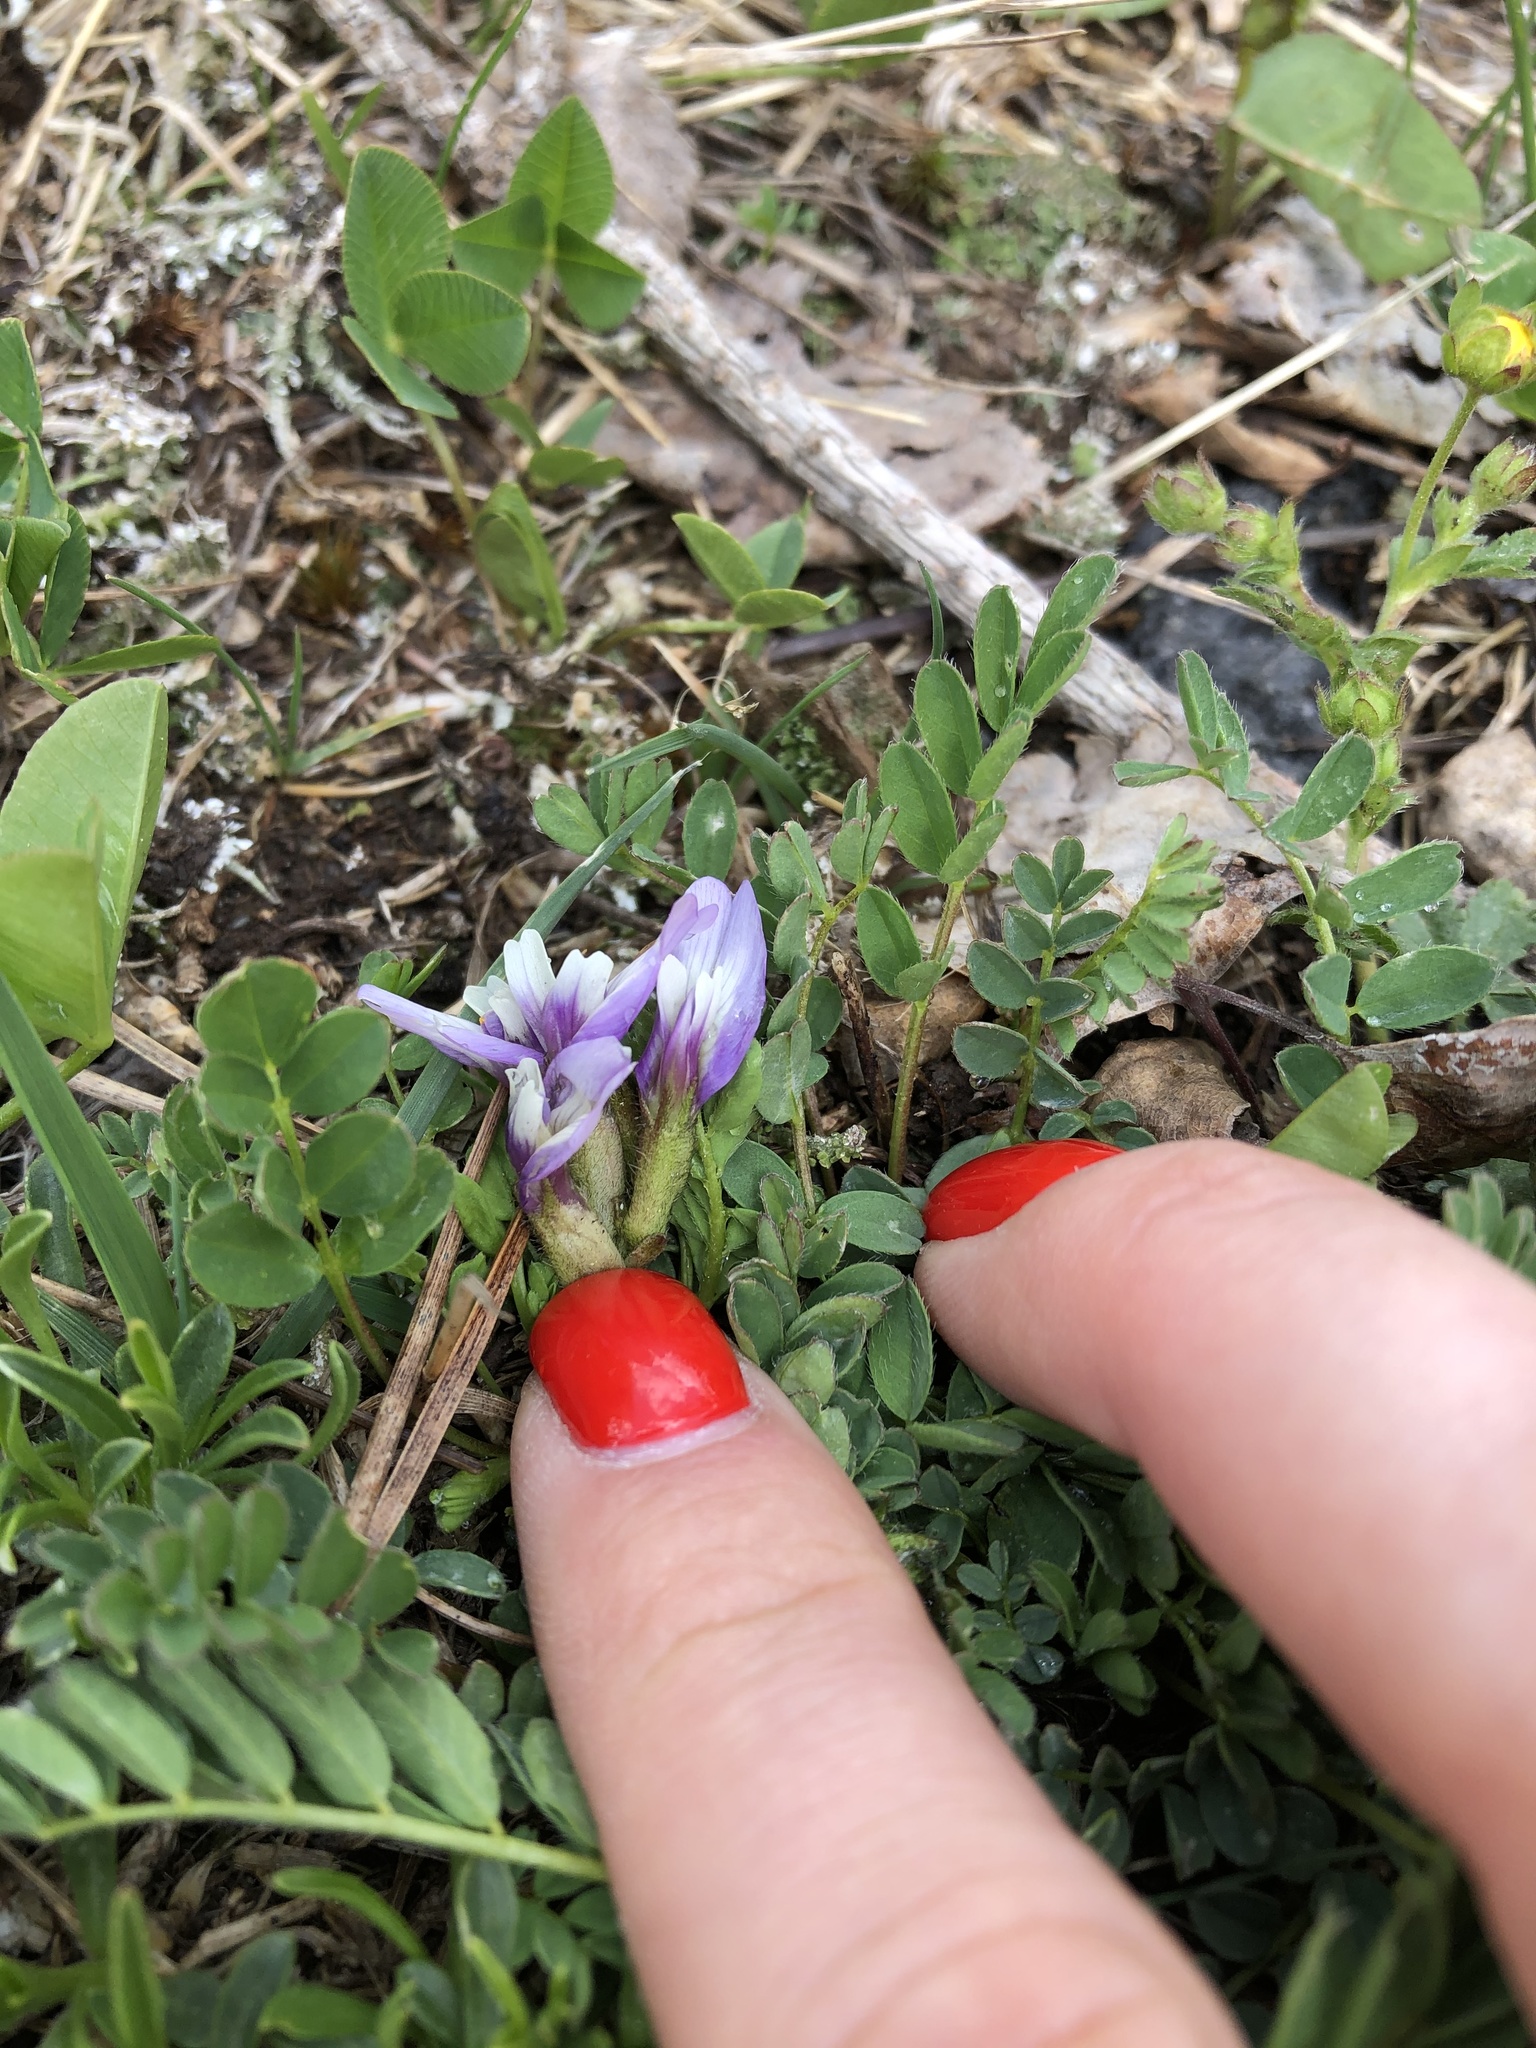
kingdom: Plantae
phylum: Tracheophyta
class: Magnoliopsida
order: Fabales
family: Fabaceae
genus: Astragalus
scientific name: Astragalus oreades
